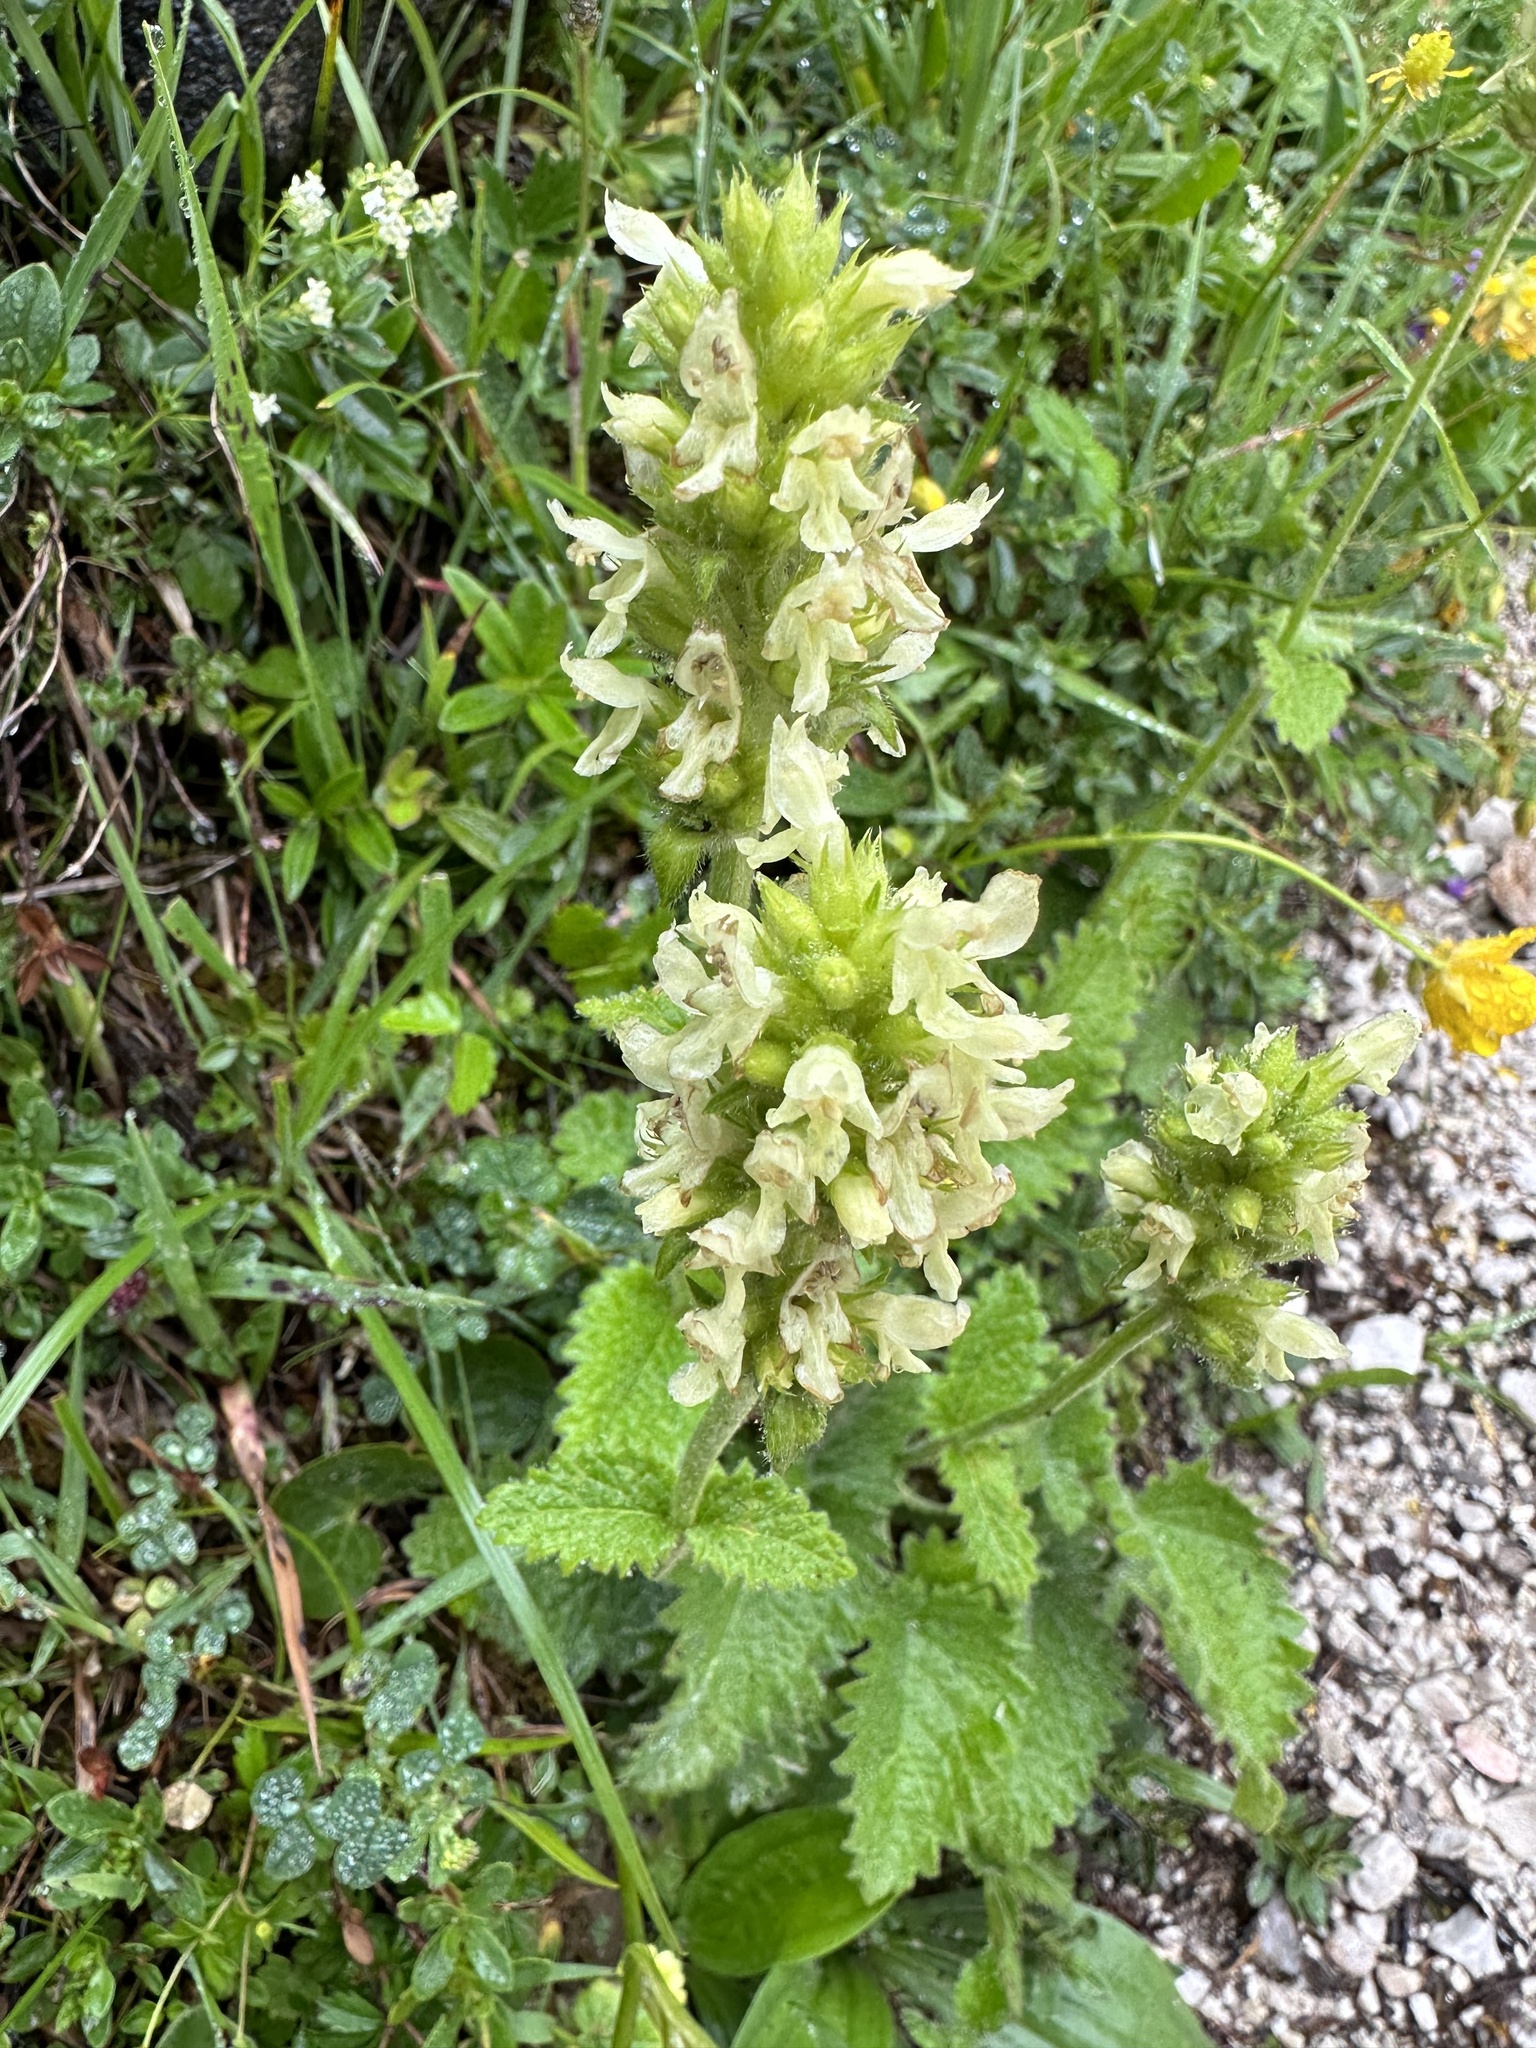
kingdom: Plantae
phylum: Tracheophyta
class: Magnoliopsida
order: Lamiales
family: Lamiaceae
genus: Betonica
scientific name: Betonica alopecuros
